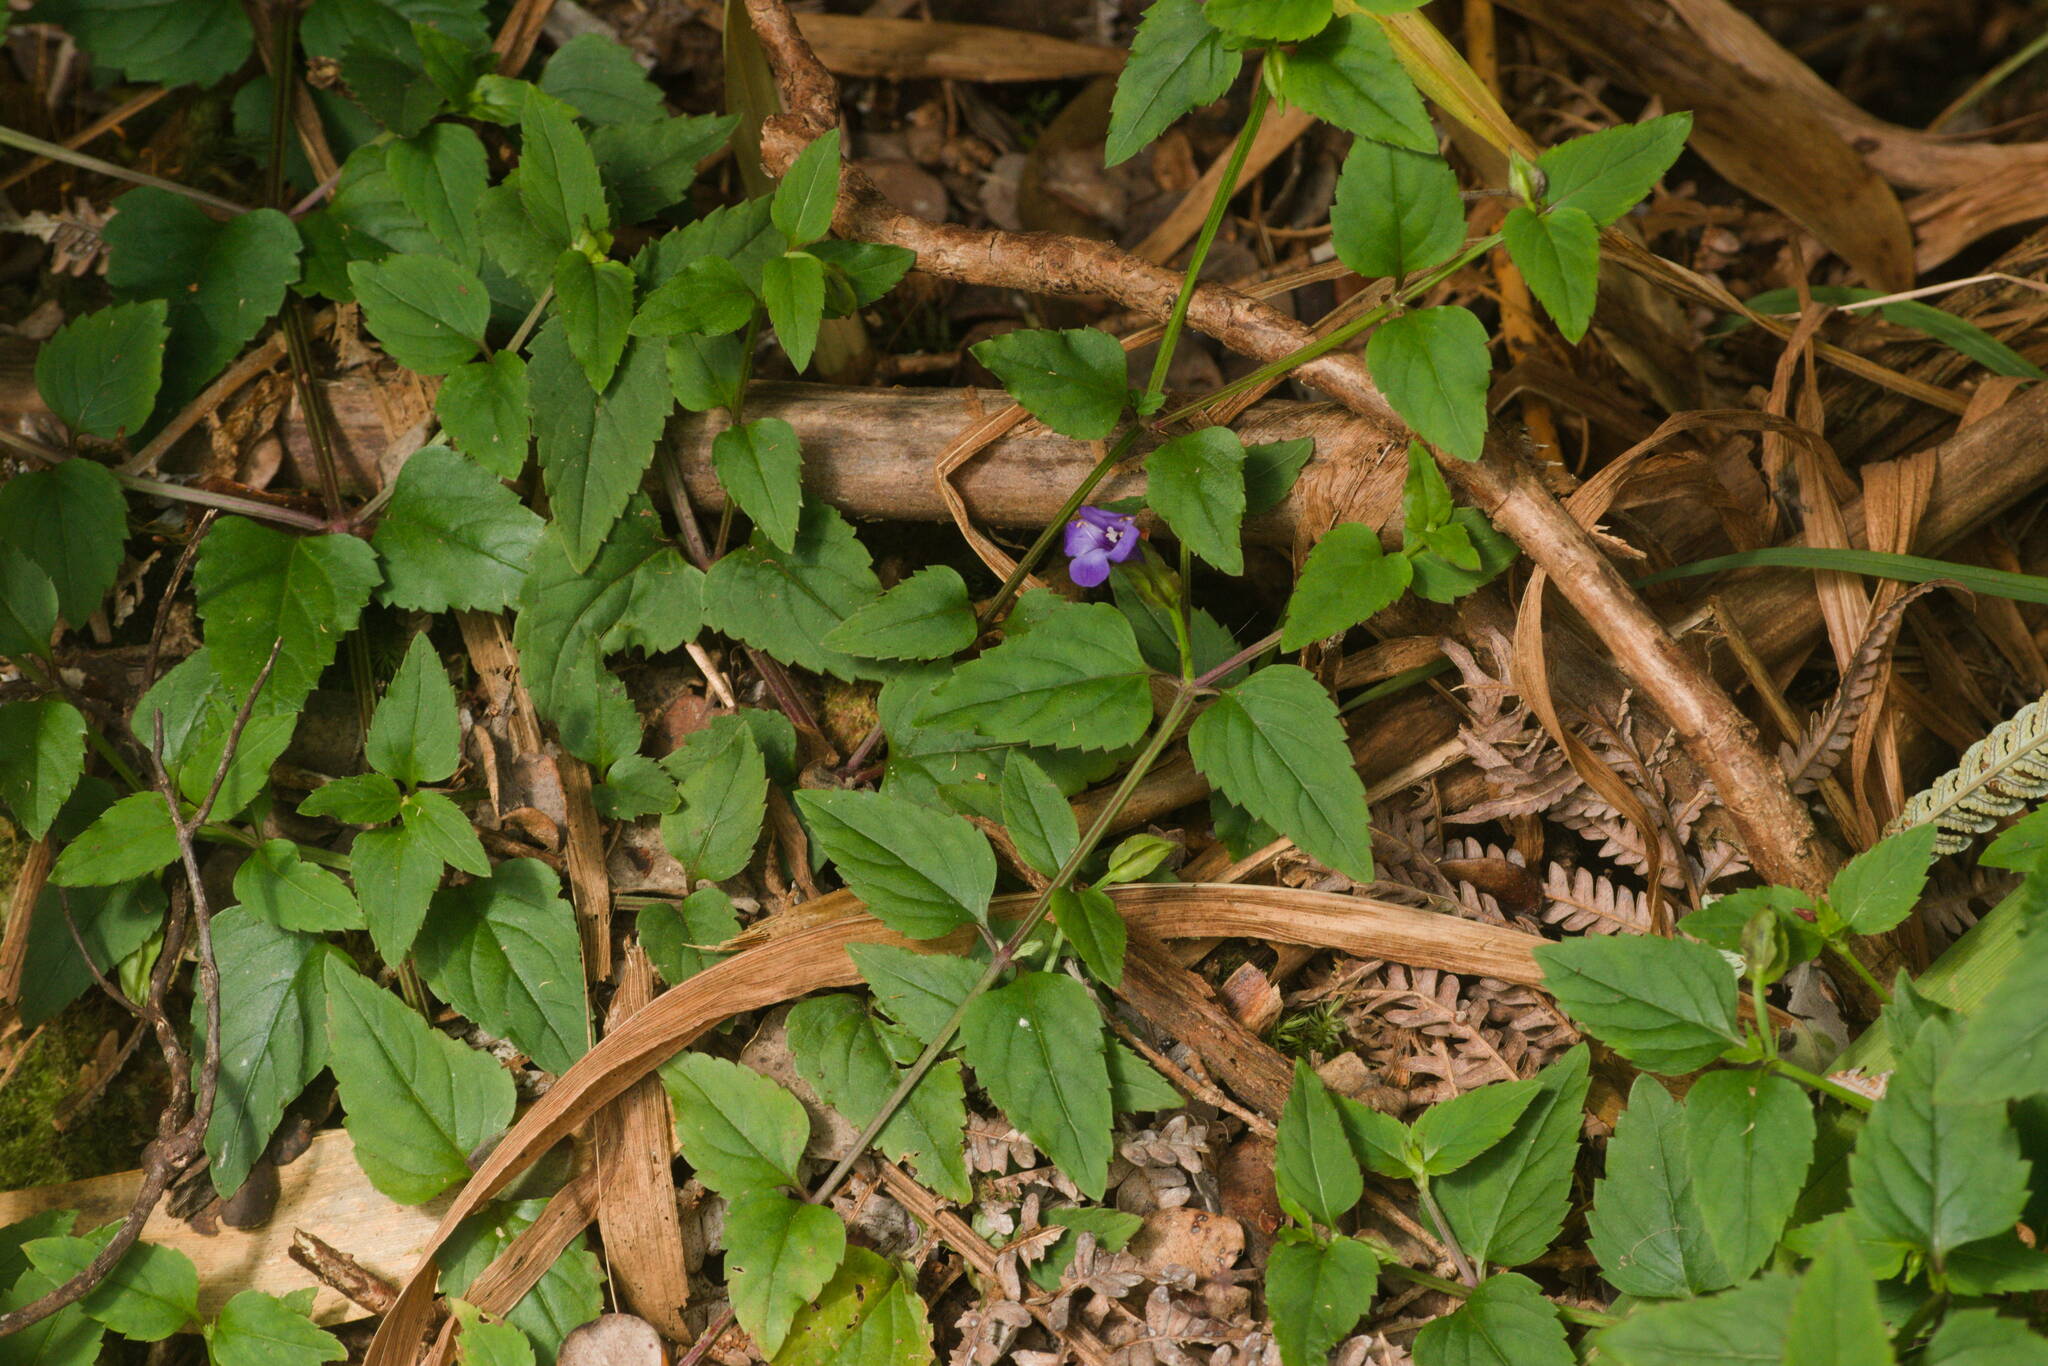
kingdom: Plantae
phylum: Tracheophyta
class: Magnoliopsida
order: Lamiales
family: Linderniaceae
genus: Torenia
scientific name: Torenia asiatica
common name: Wishbone flower
